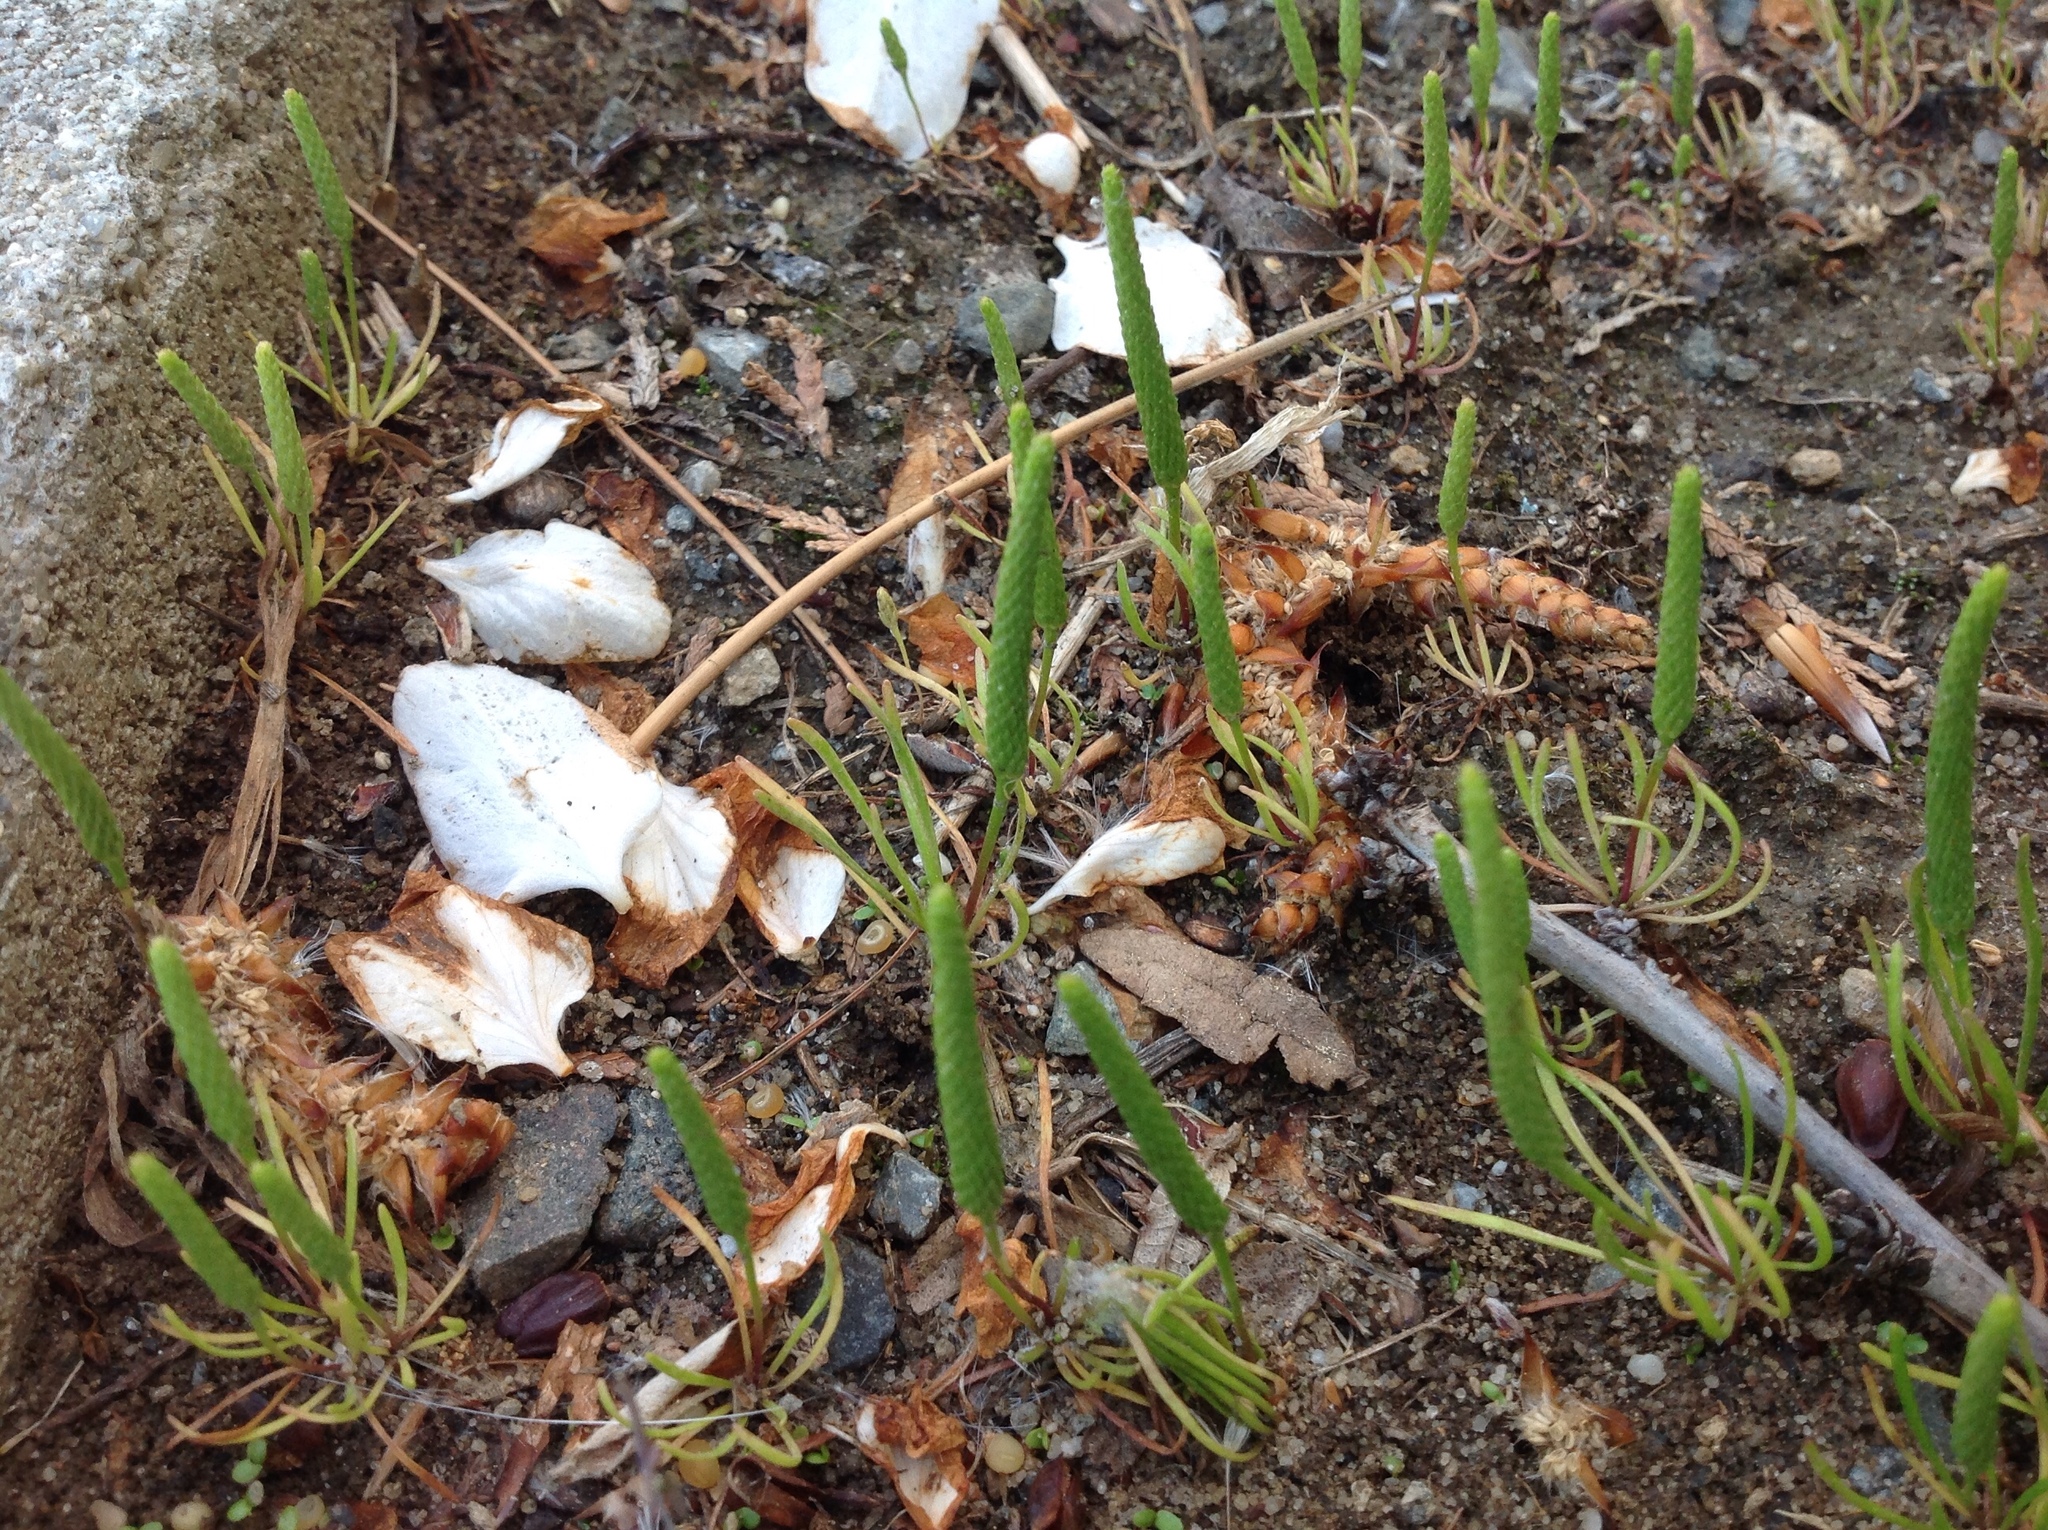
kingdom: Plantae
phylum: Tracheophyta
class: Magnoliopsida
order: Ranunculales
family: Ranunculaceae
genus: Myosurus
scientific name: Myosurus minimus
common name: Mousetail
